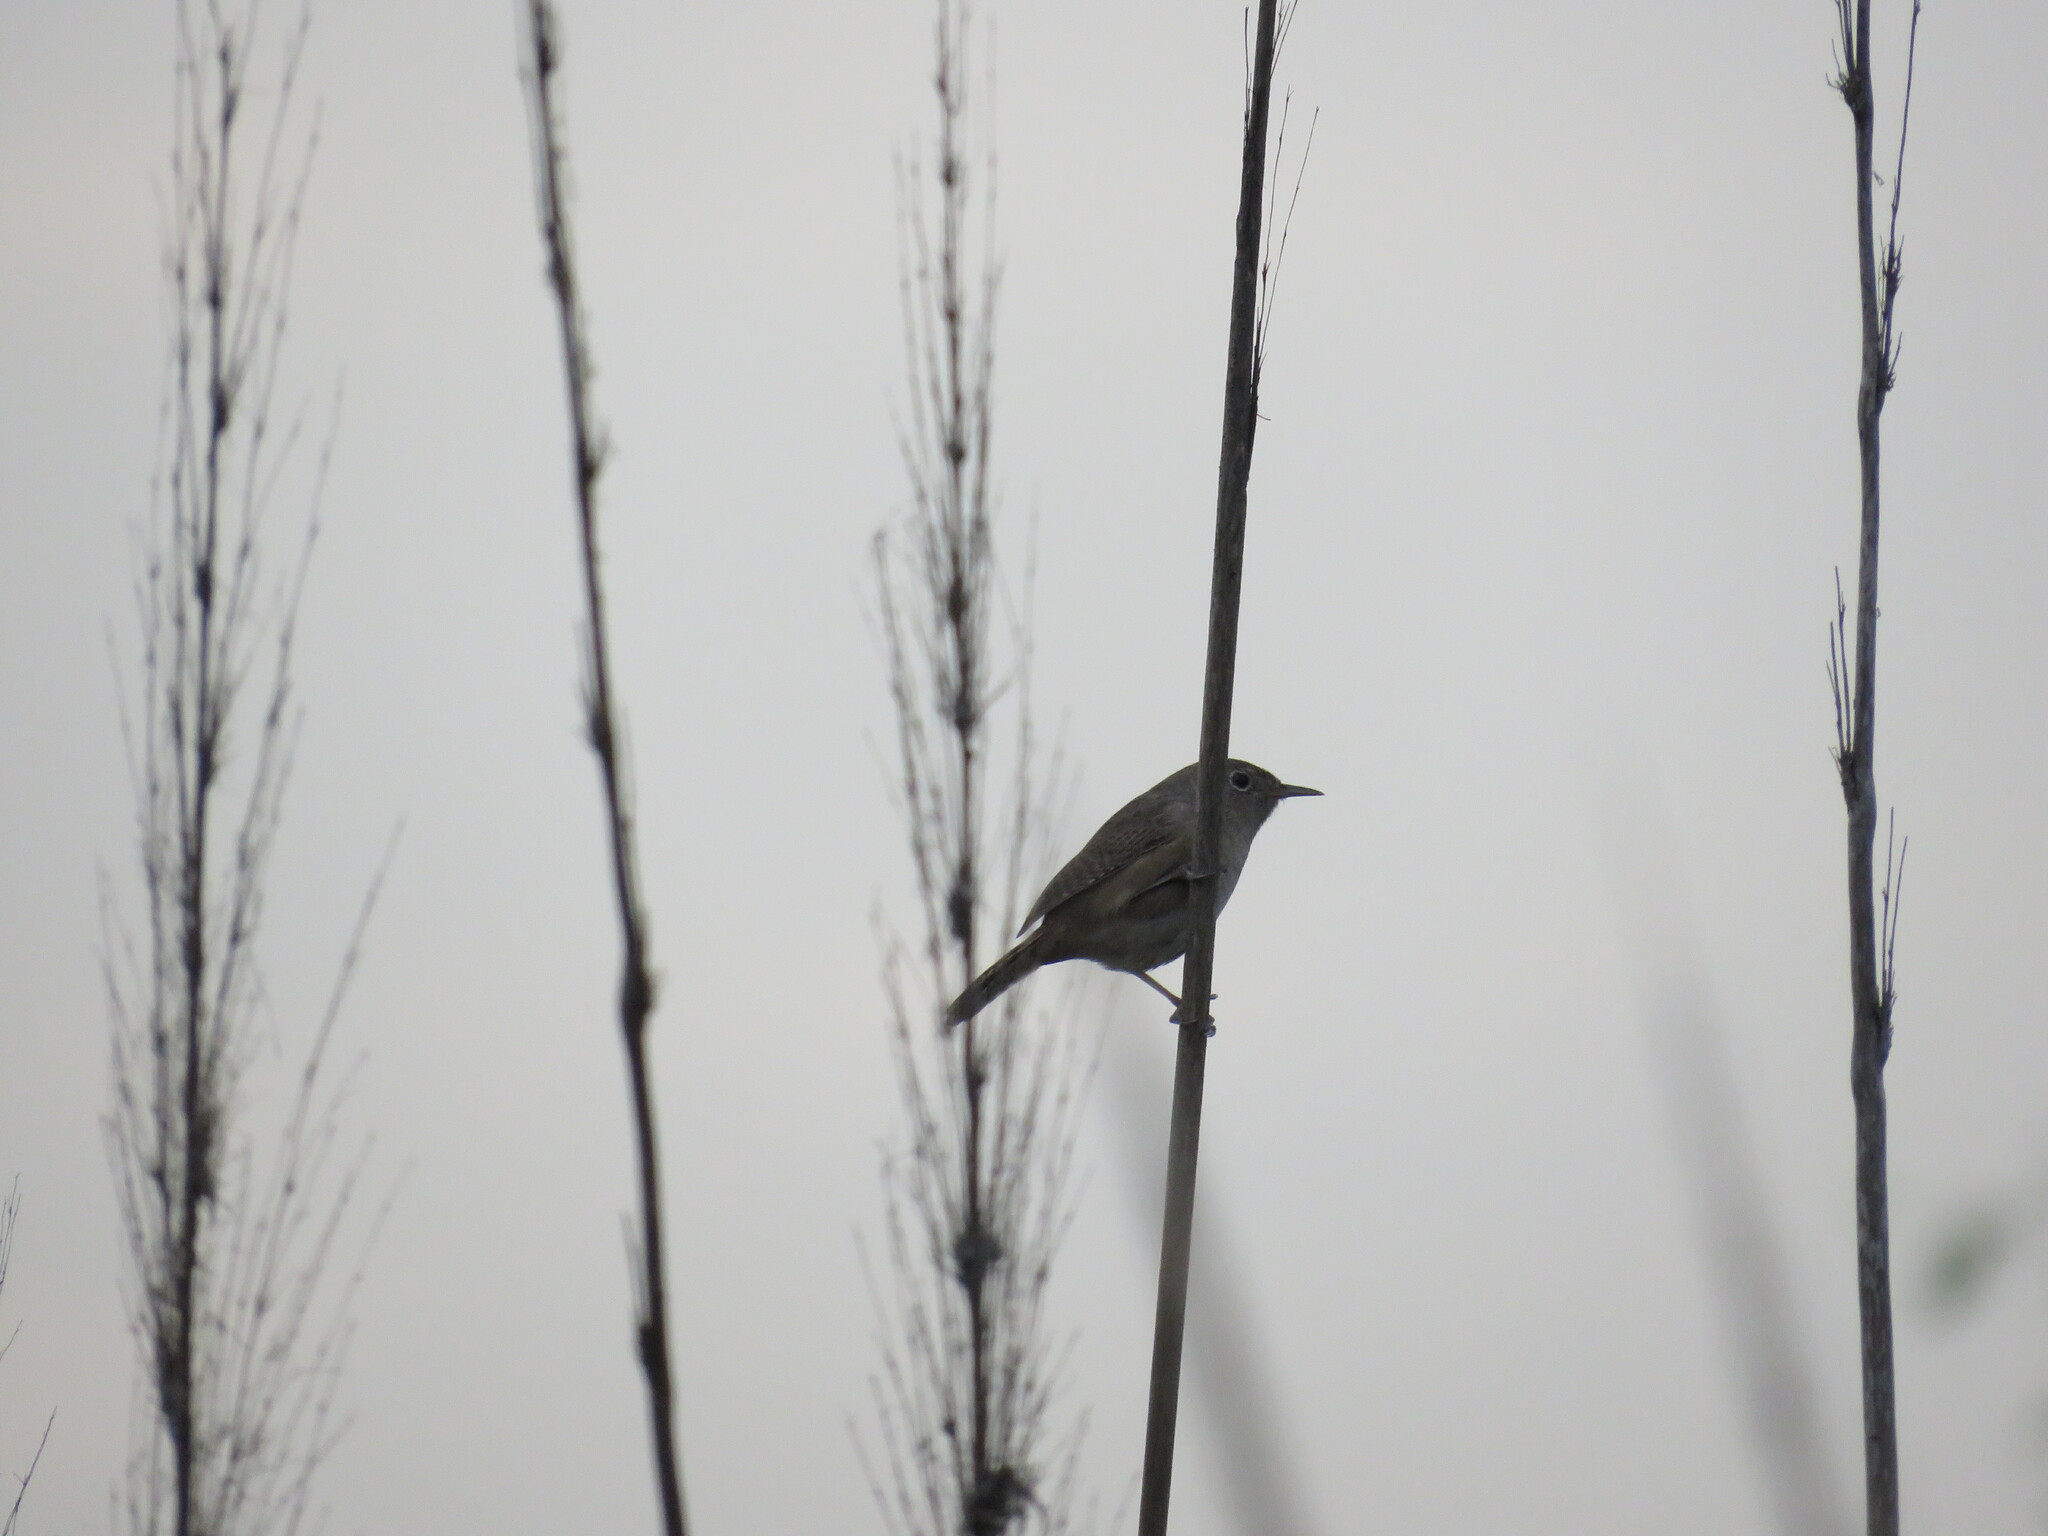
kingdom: Animalia
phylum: Chordata
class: Aves
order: Passeriformes
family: Troglodytidae
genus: Troglodytes
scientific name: Troglodytes aedon
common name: House wren
